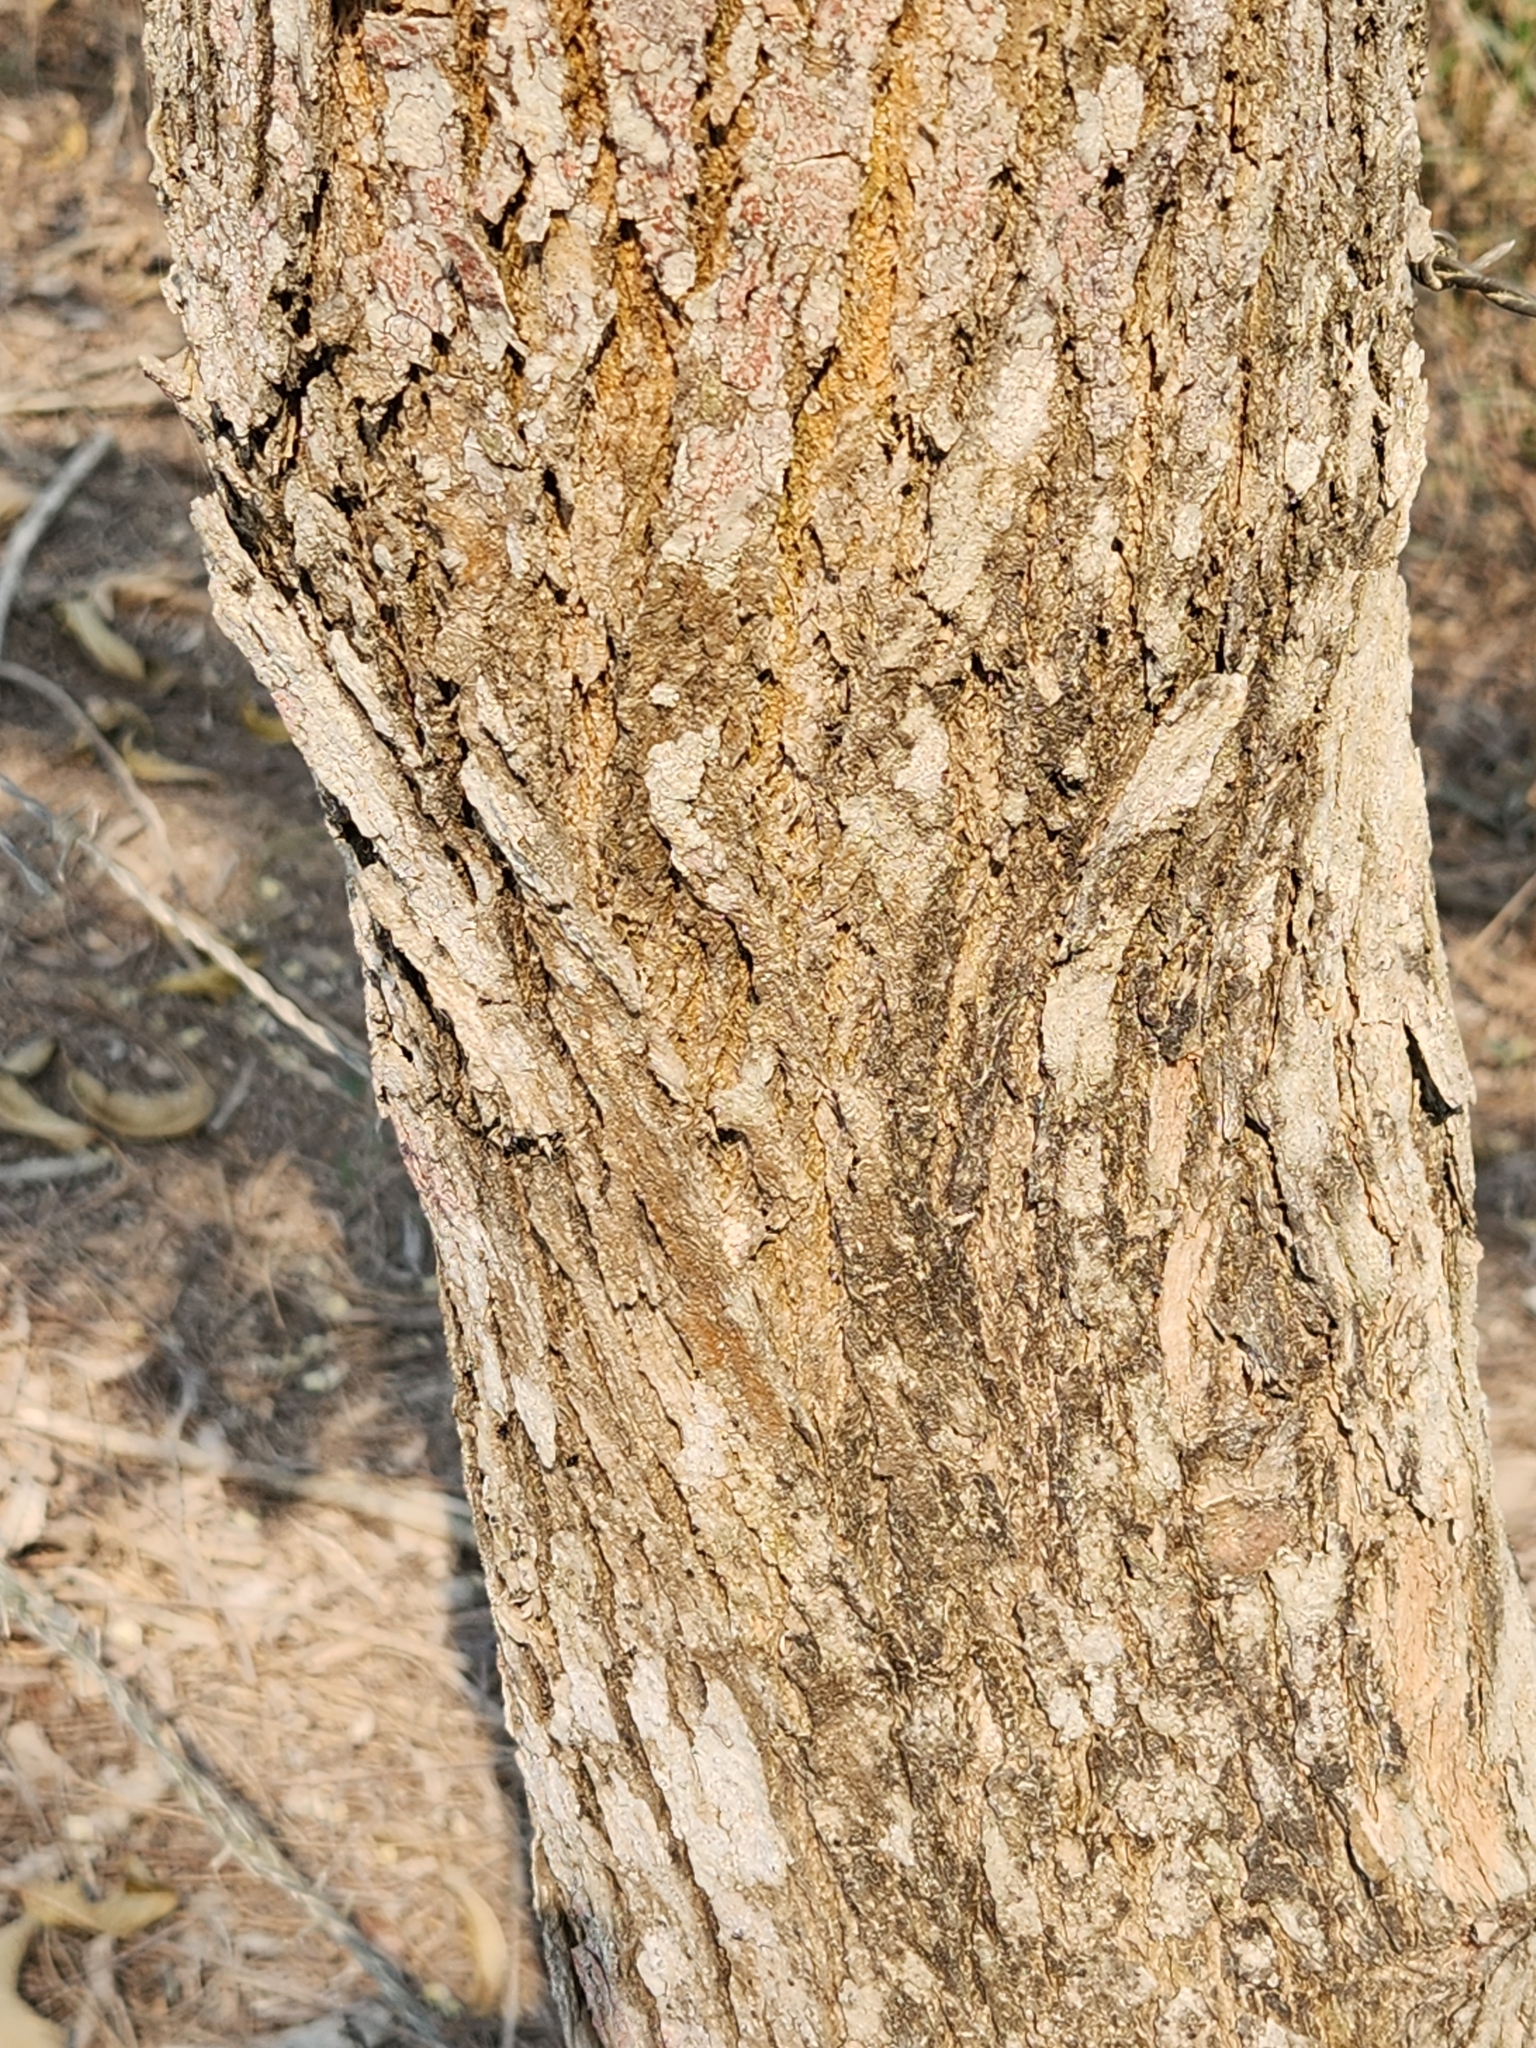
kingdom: Plantae
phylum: Tracheophyta
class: Magnoliopsida
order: Fabales
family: Fabaceae
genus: Gliricidia
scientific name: Gliricidia sepium
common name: Quickstick
